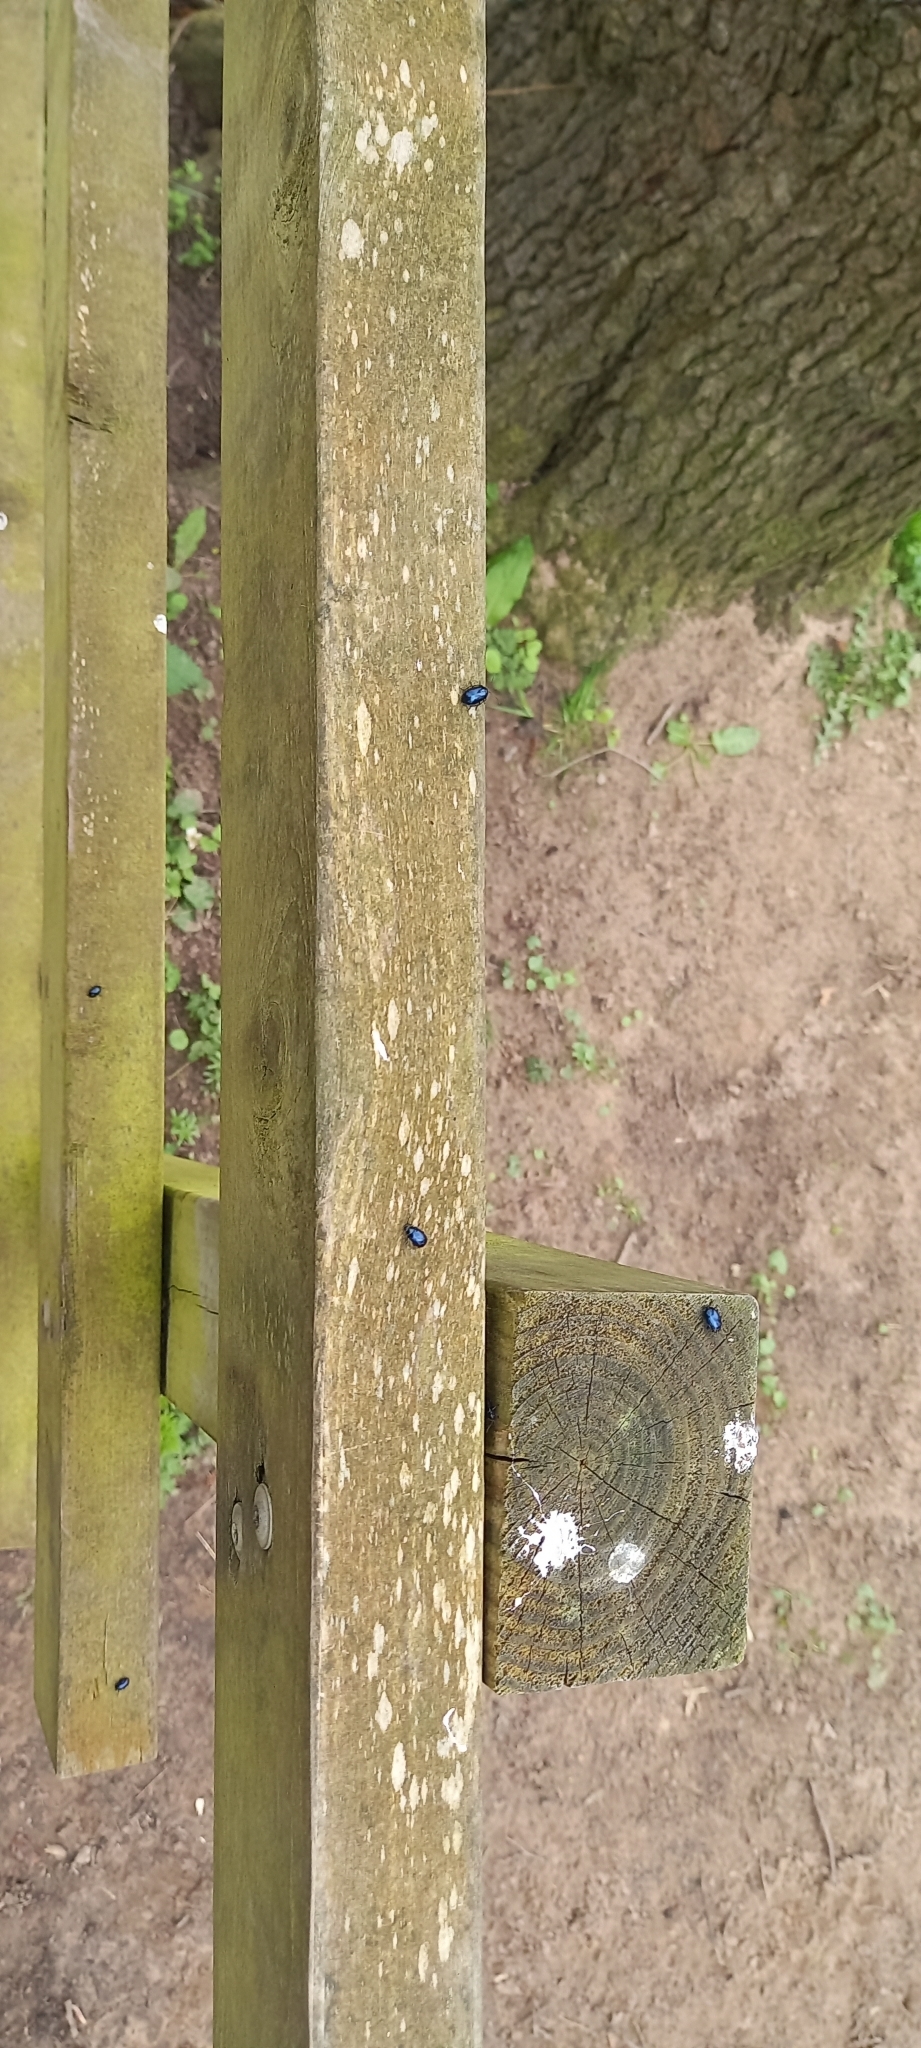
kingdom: Animalia
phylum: Arthropoda
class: Insecta
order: Coleoptera
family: Chrysomelidae
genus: Agelastica
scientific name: Agelastica alni
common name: Alder leaf beetle
